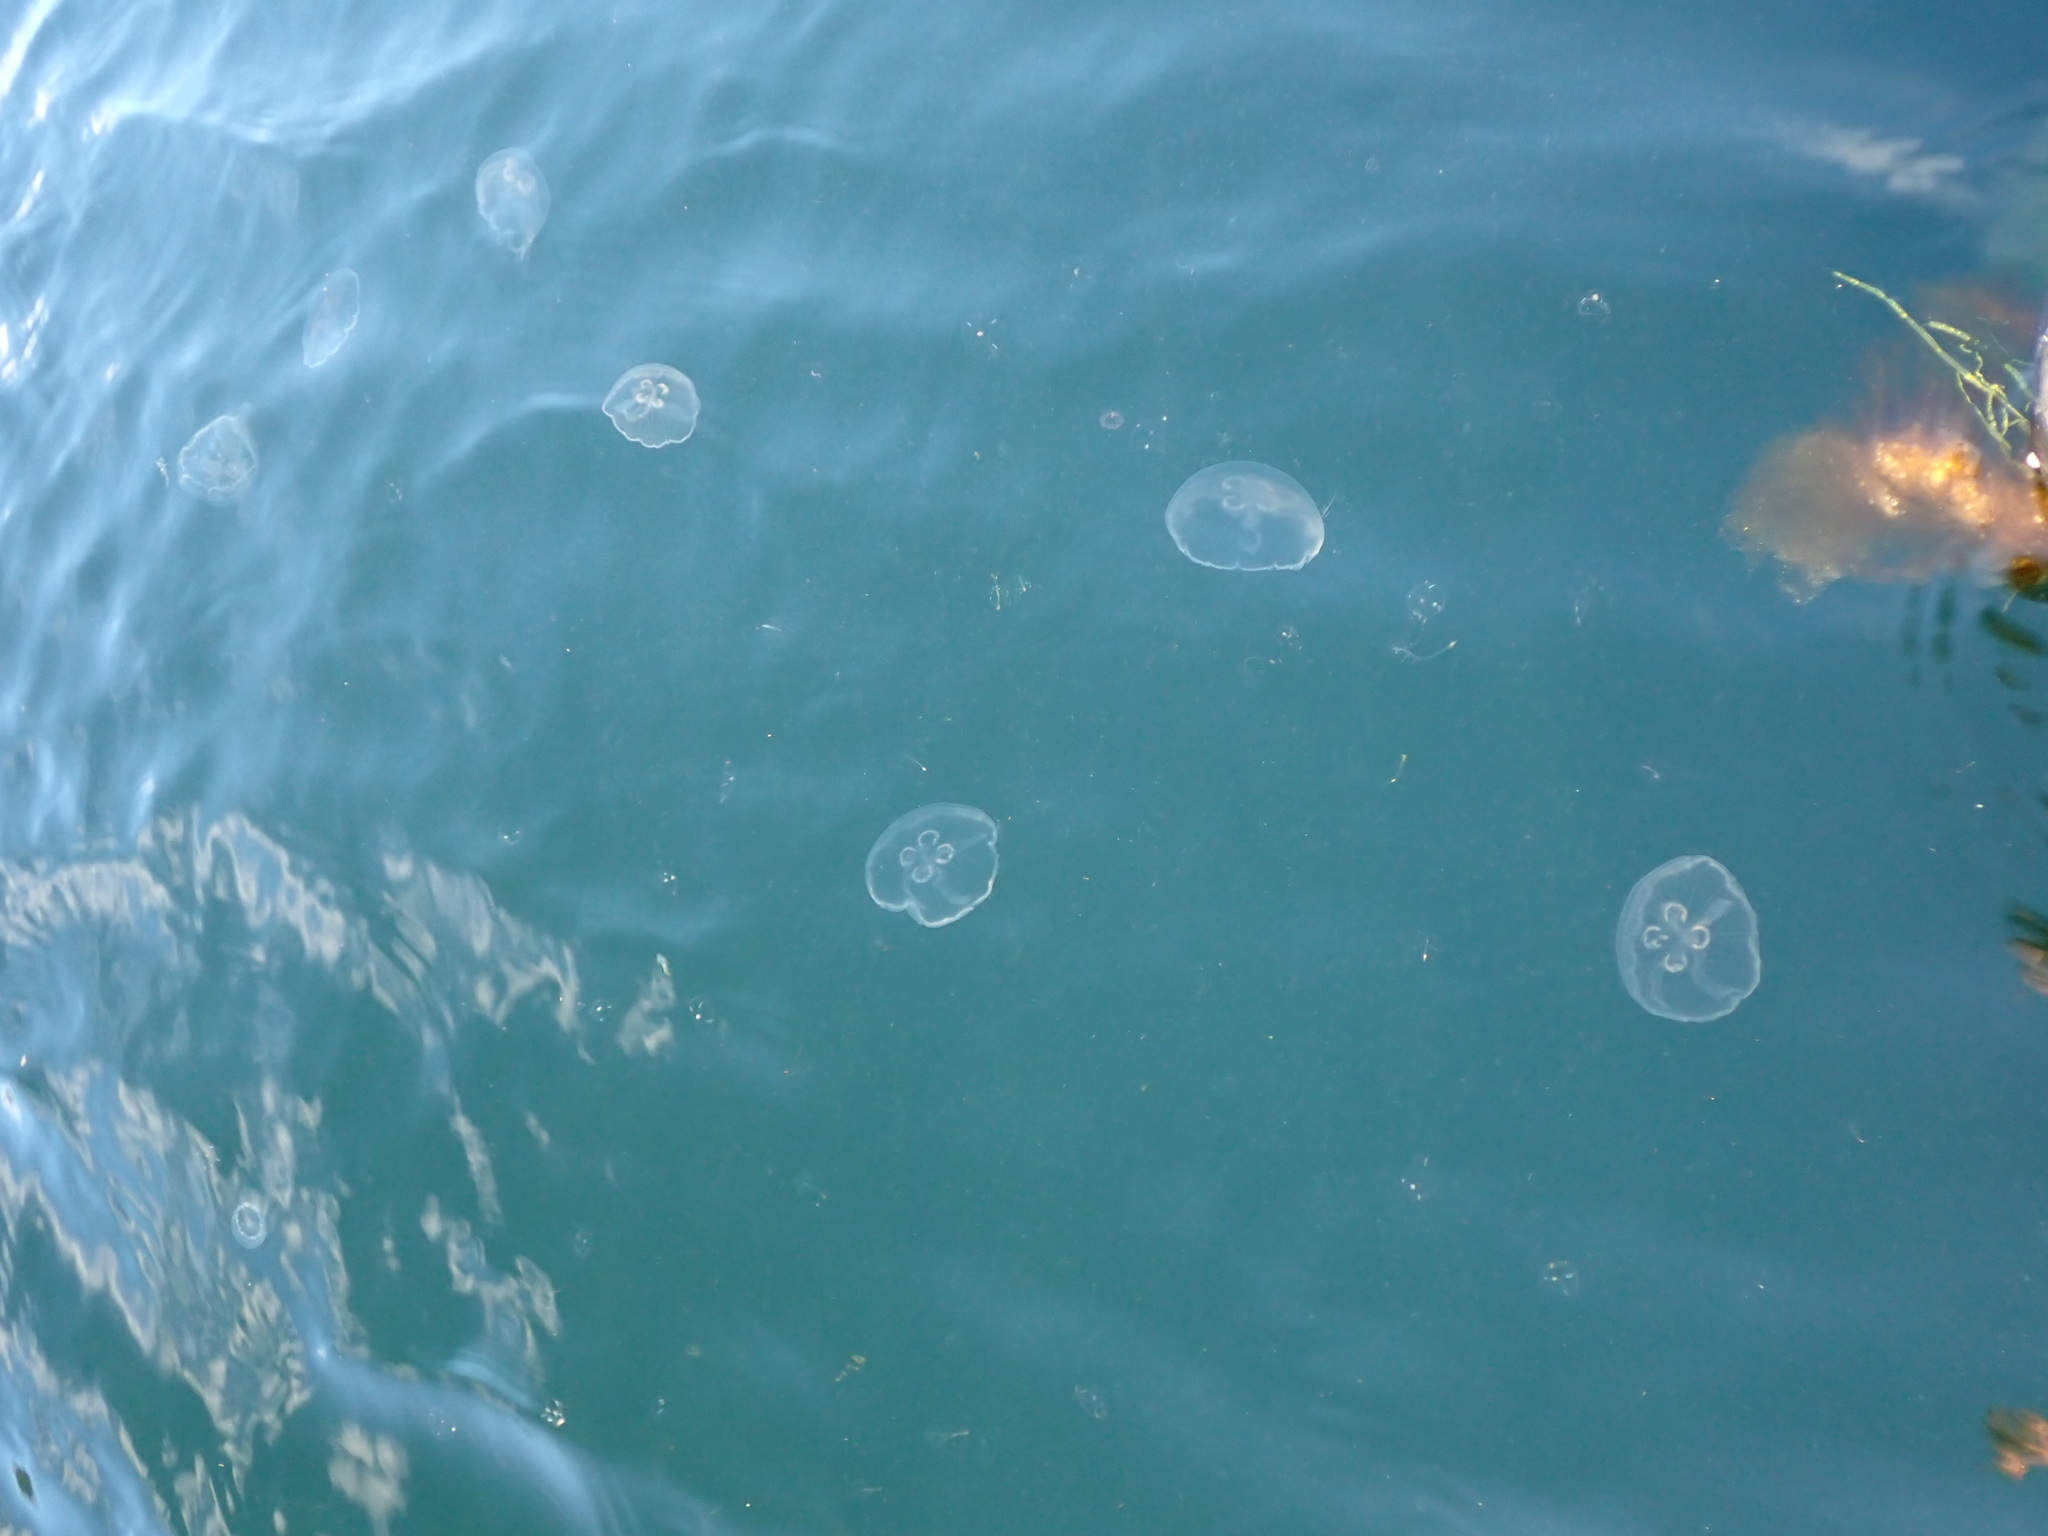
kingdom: Animalia
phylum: Cnidaria
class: Scyphozoa
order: Semaeostomeae
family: Ulmaridae
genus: Aurelia
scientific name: Aurelia labiata
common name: Pacific moon jelly
